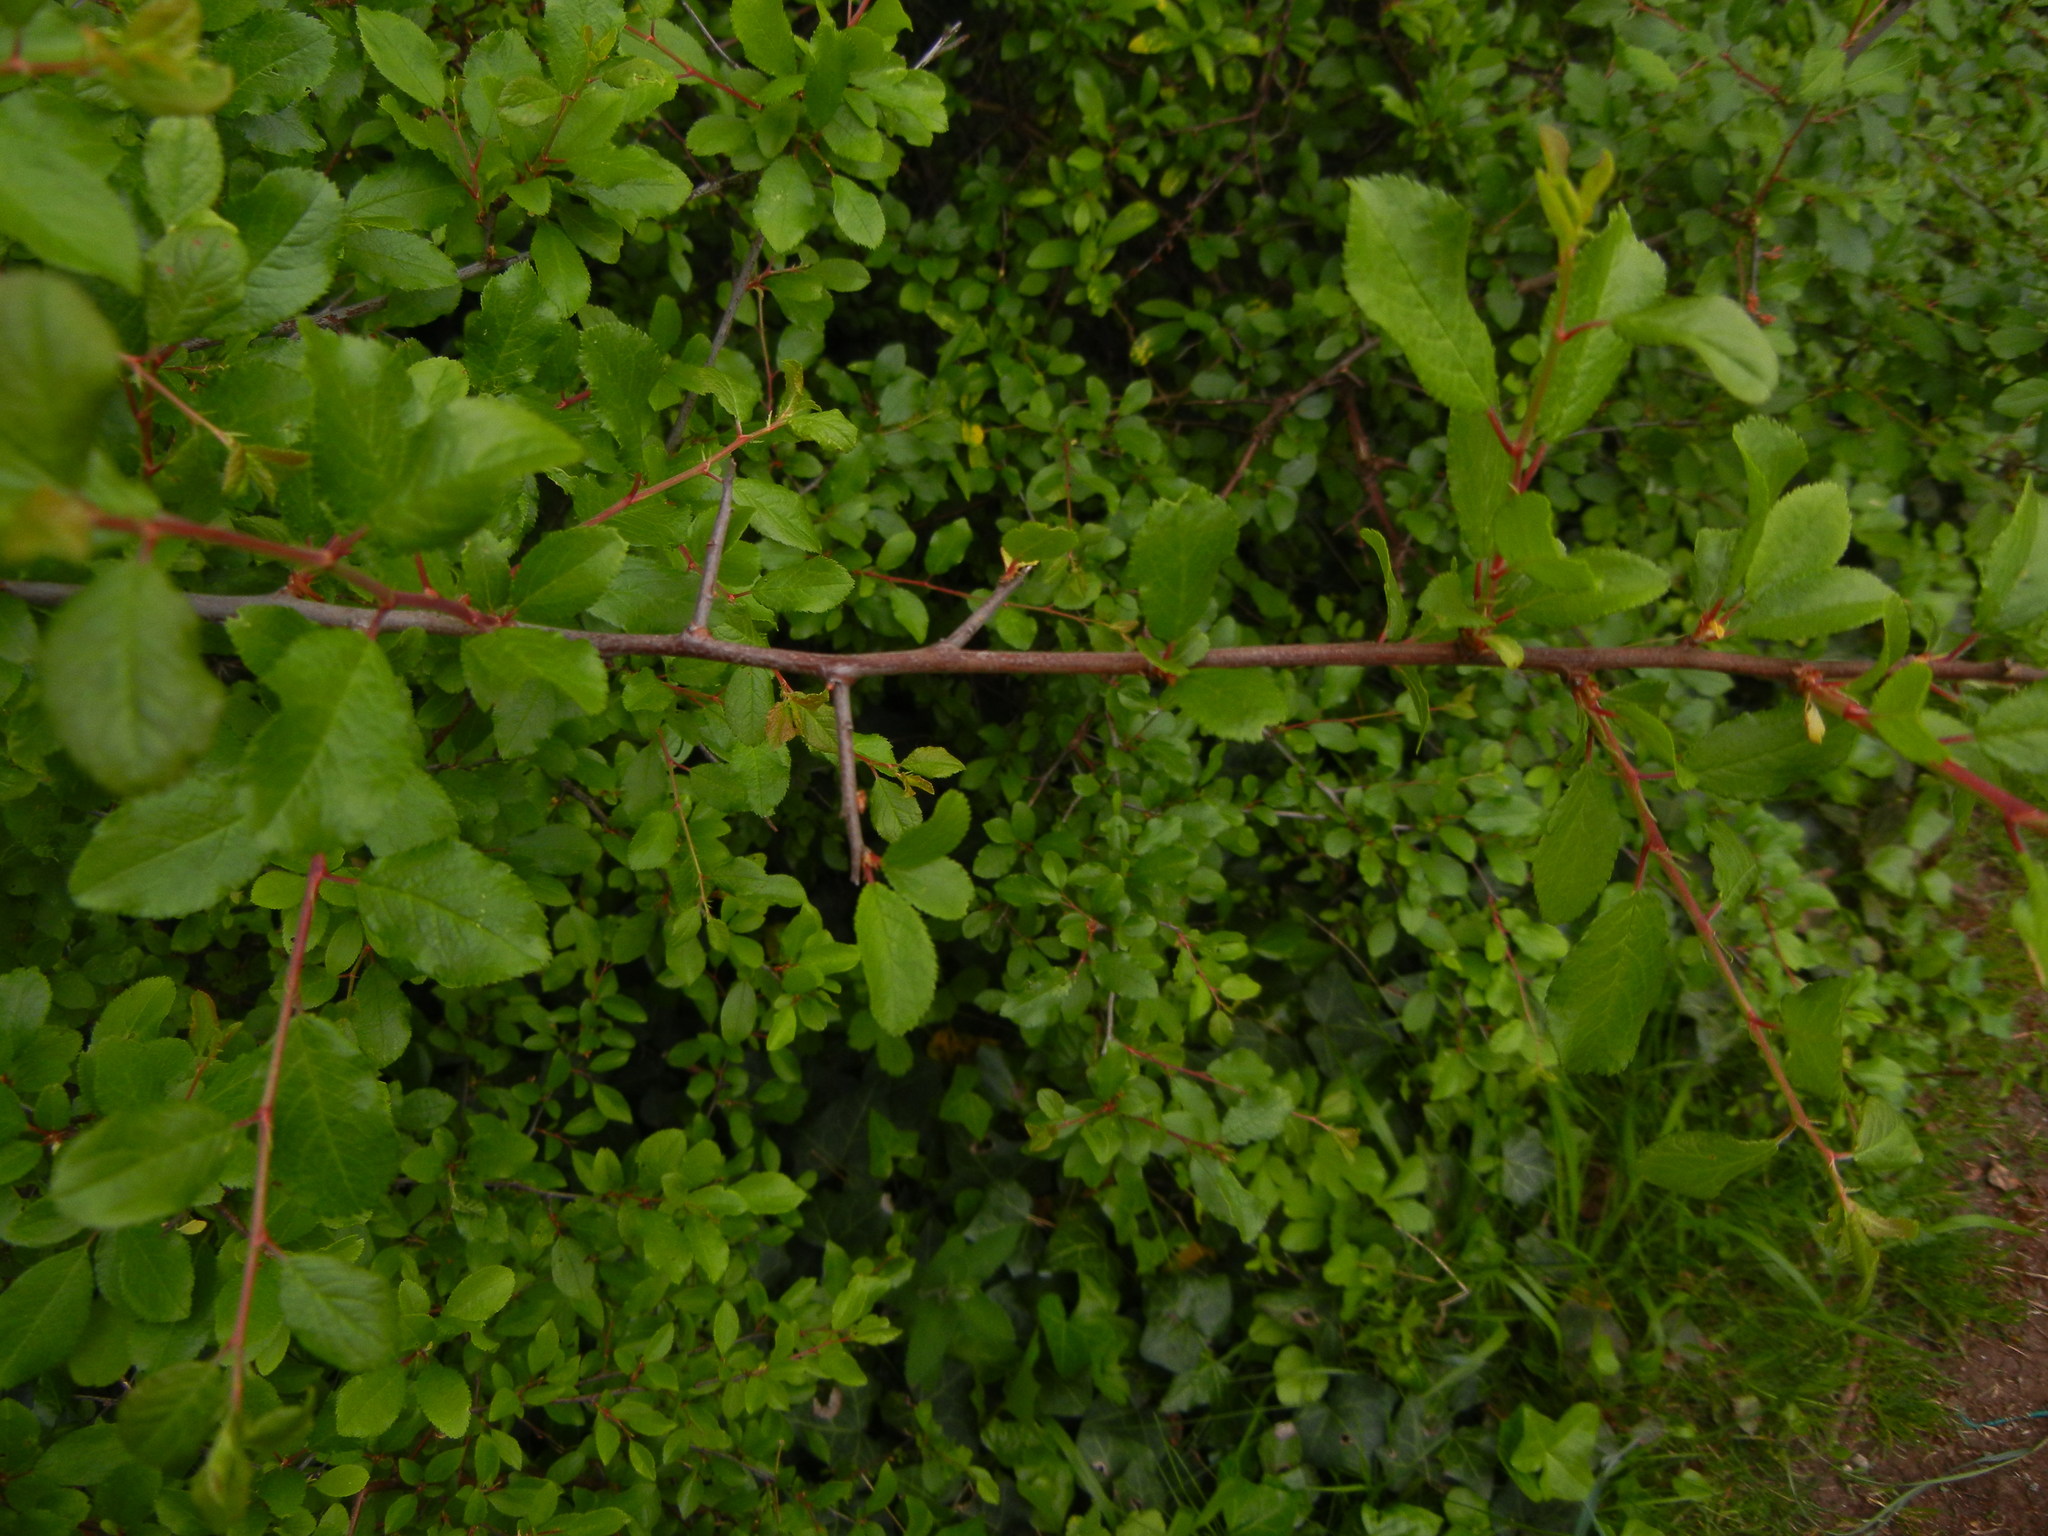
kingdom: Plantae
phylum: Tracheophyta
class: Magnoliopsida
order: Rosales
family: Rosaceae
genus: Prunus
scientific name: Prunus spinosa
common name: Blackthorn
